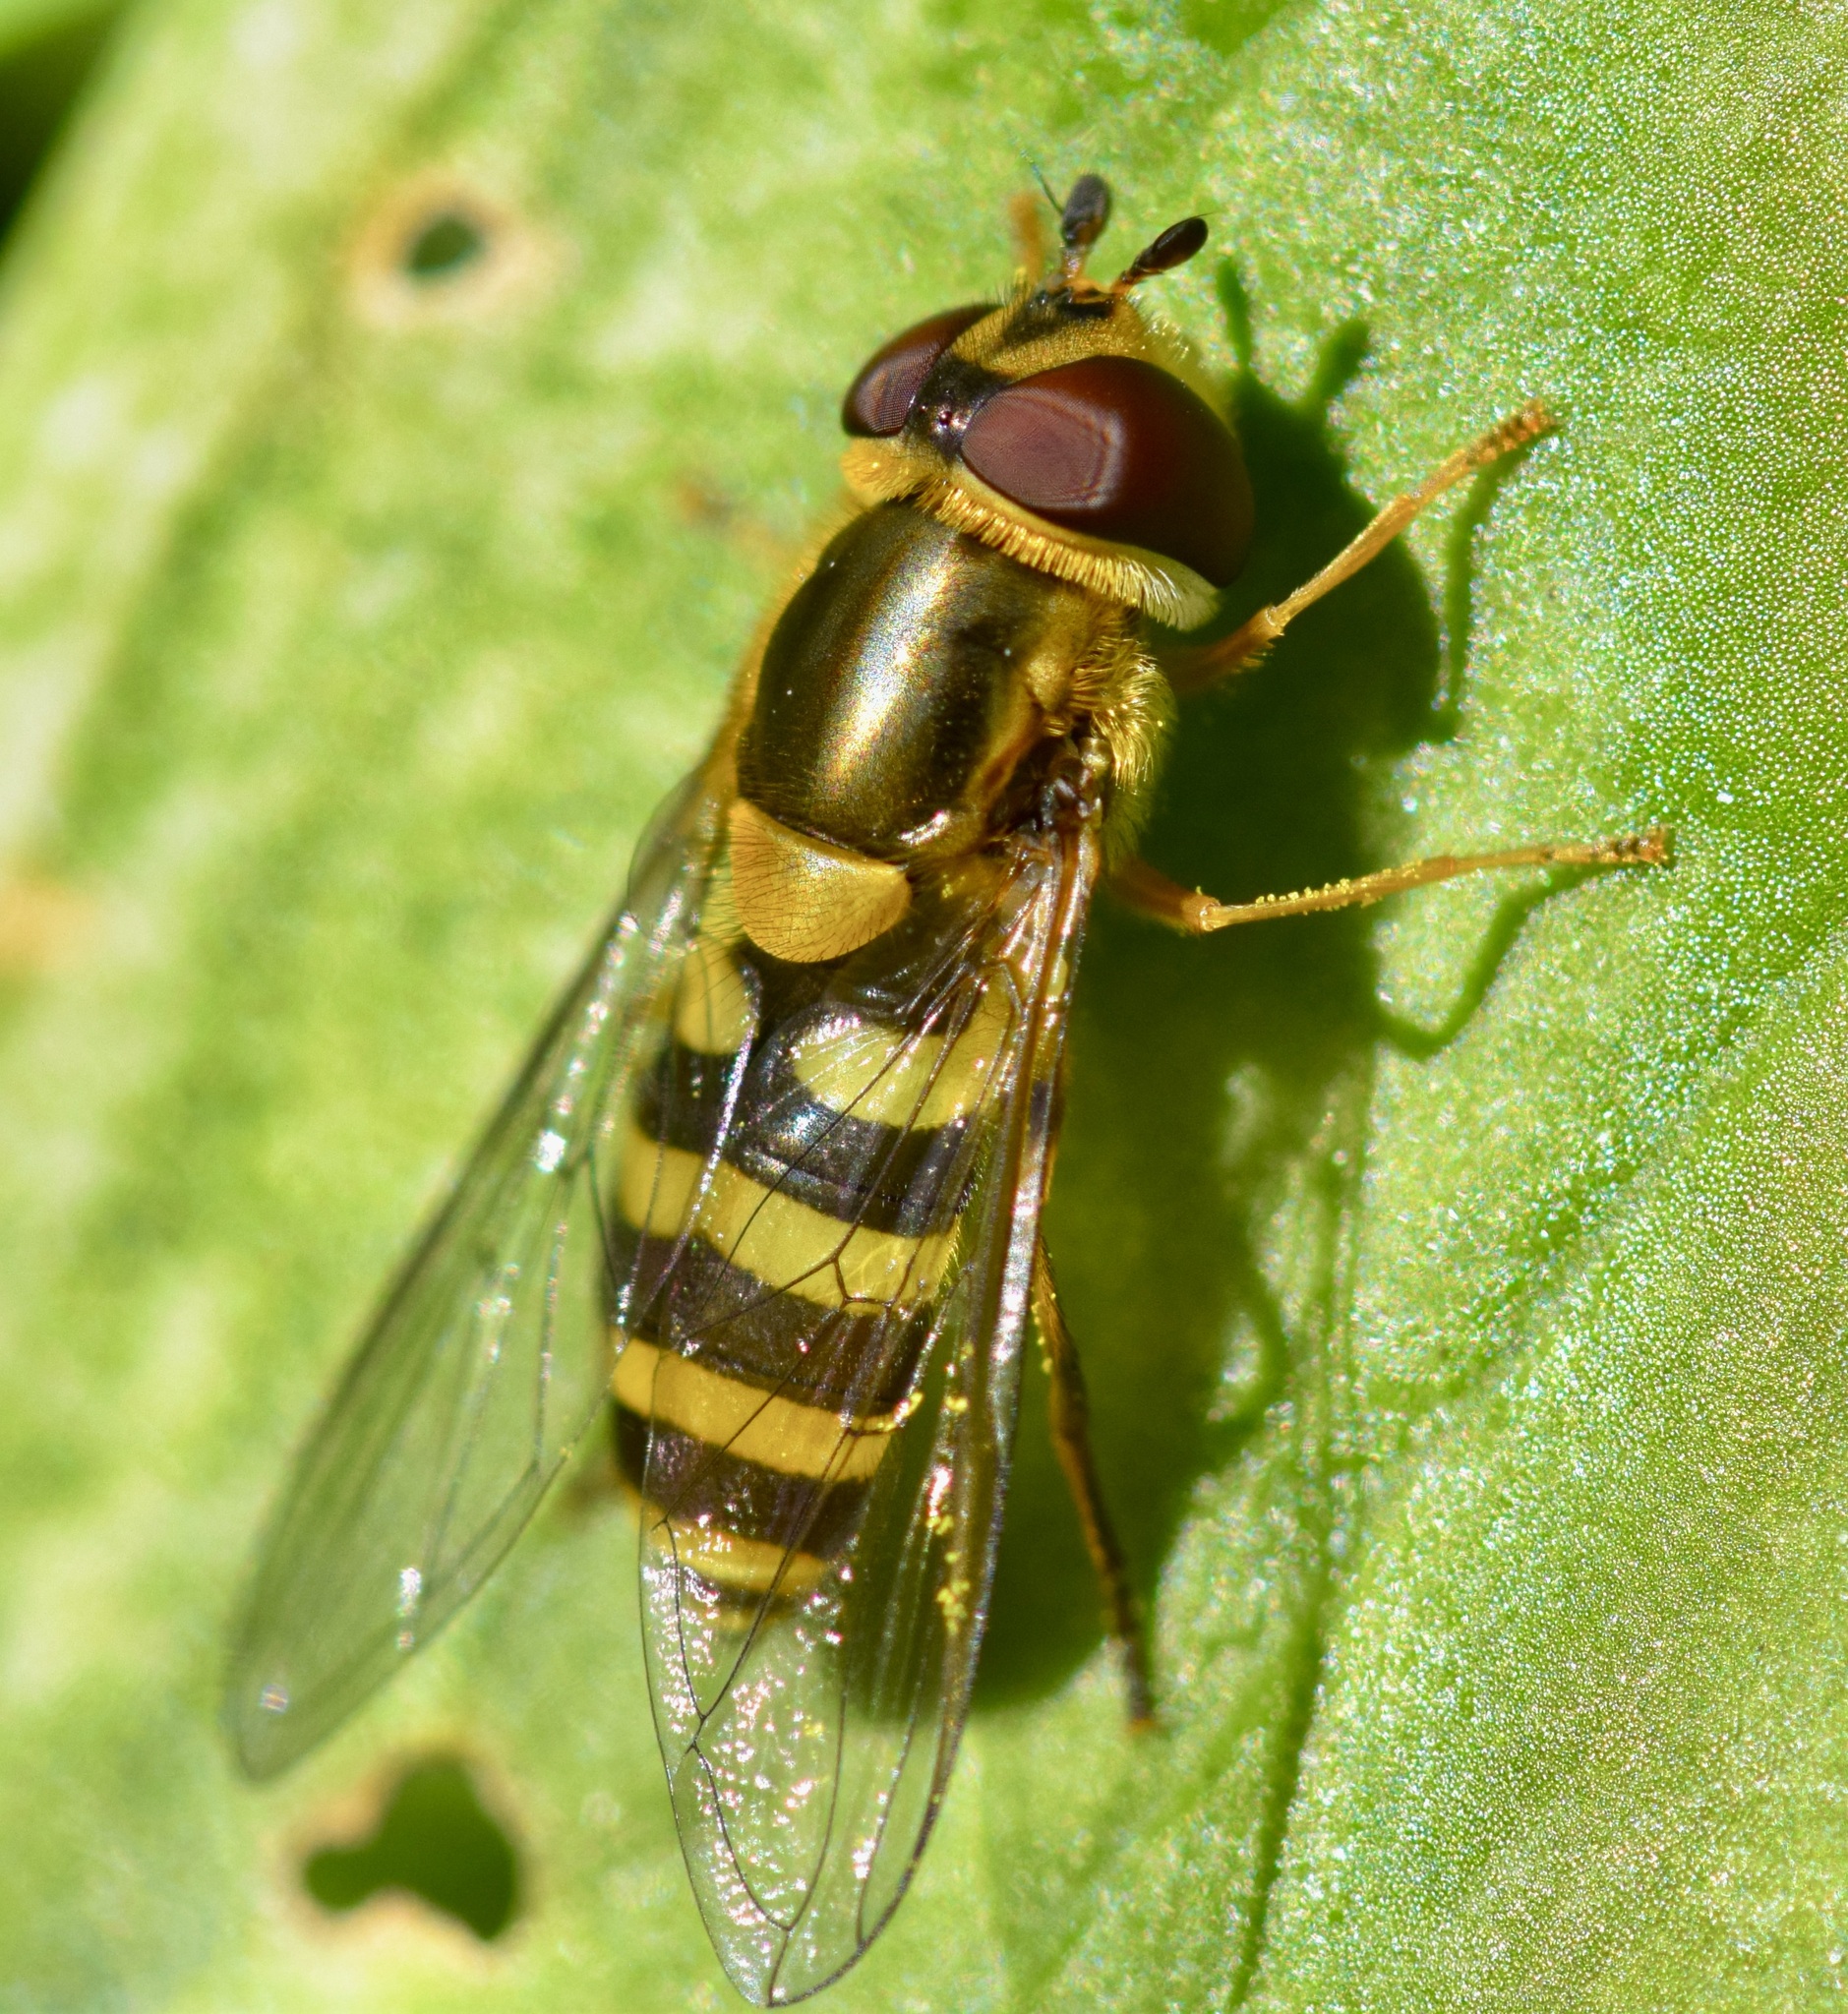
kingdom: Animalia
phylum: Arthropoda
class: Insecta
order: Diptera
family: Syrphidae
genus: Syrphus
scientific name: Syrphus rectus
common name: Yellow-legged flower fly
